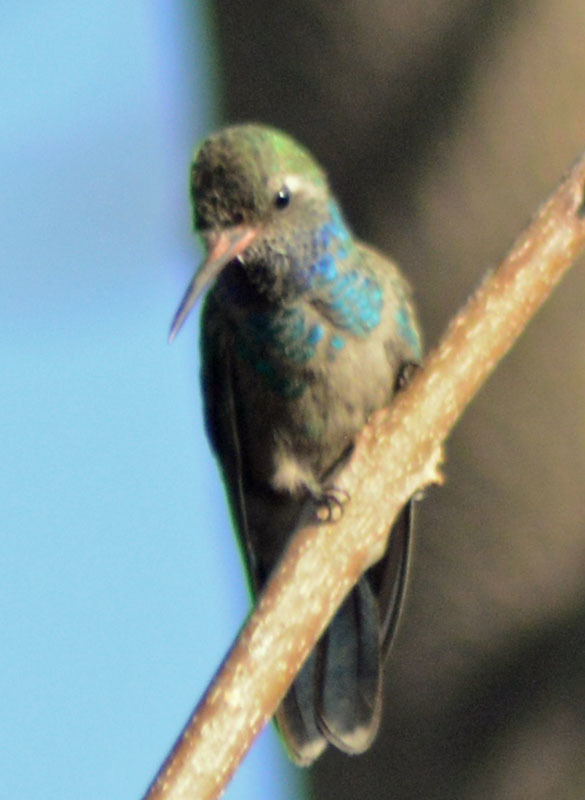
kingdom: Animalia
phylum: Chordata
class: Aves
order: Apodiformes
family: Trochilidae
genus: Cynanthus
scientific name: Cynanthus latirostris
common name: Broad-billed hummingbird
